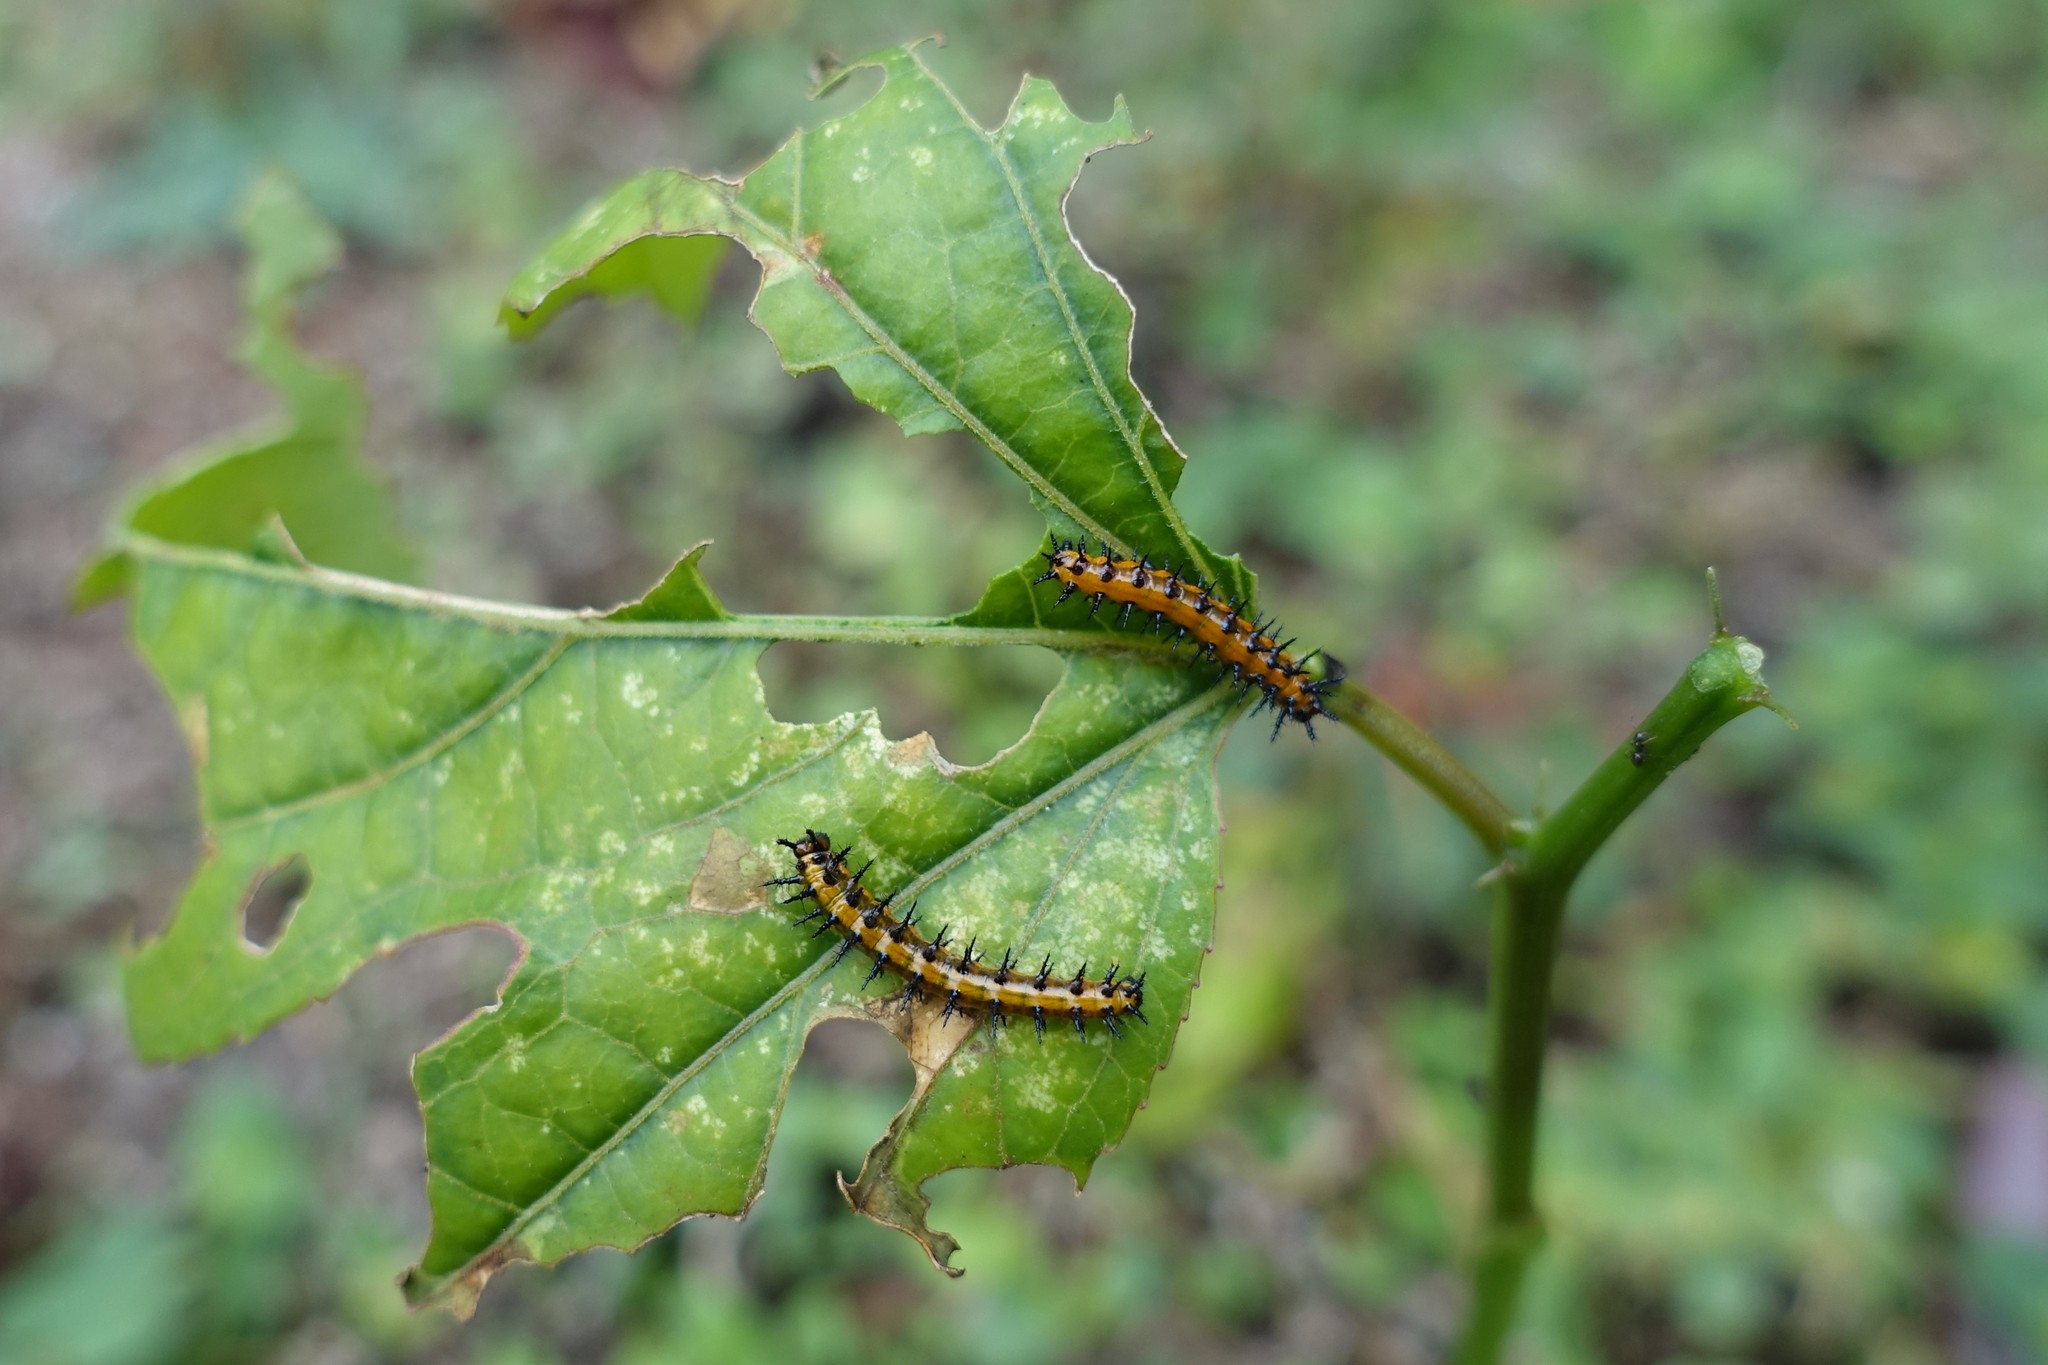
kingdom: Animalia
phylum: Arthropoda
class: Insecta
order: Lepidoptera
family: Nymphalidae
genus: Dione
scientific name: Dione vanillae
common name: Gulf fritillary
